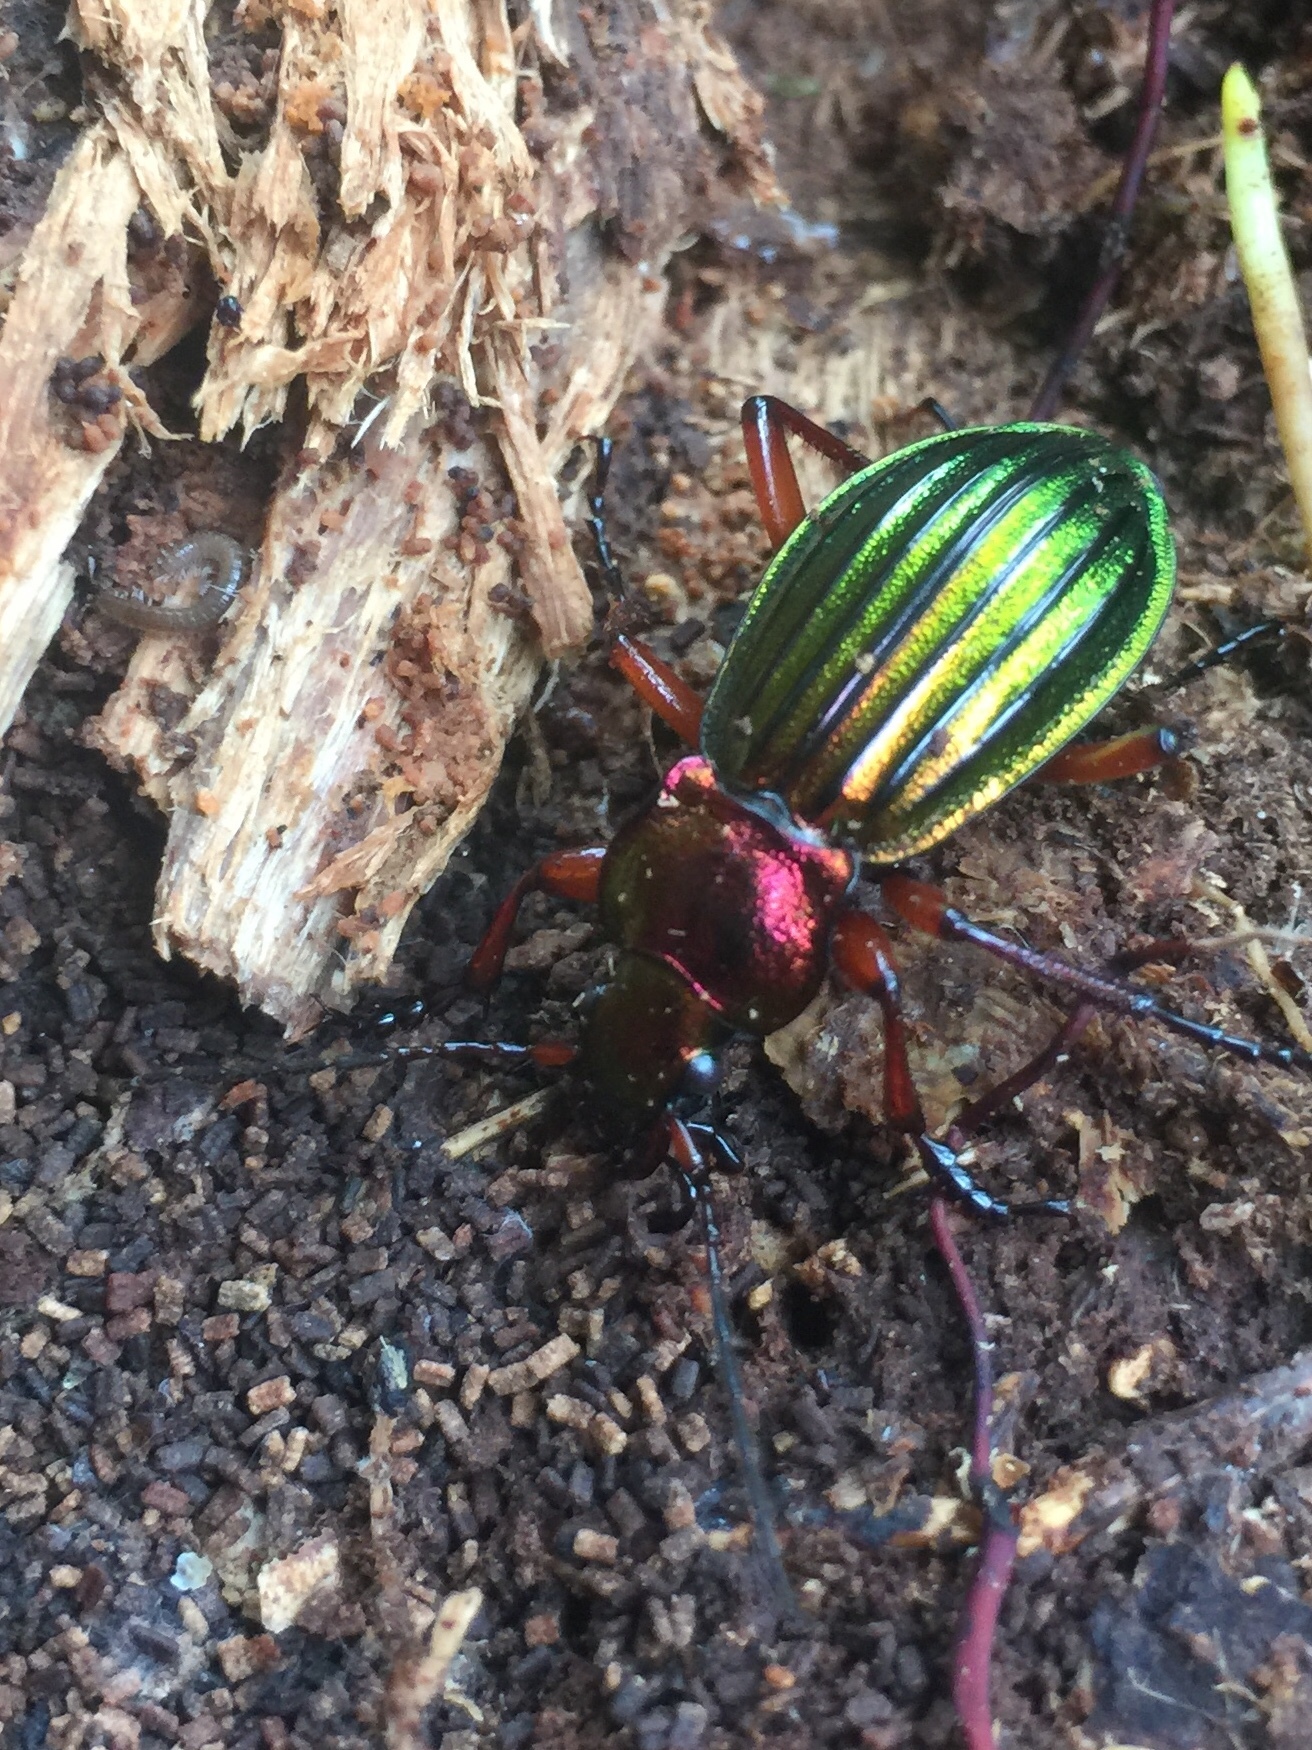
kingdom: Animalia
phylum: Arthropoda
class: Insecta
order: Coleoptera
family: Carabidae
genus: Carabus
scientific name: Carabus auronitens
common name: Carabus auronitens
